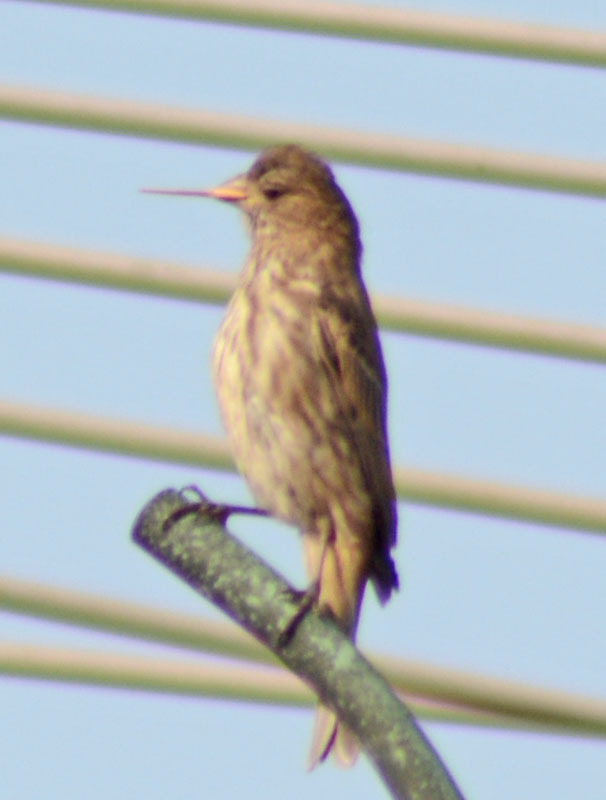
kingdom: Animalia
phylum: Chordata
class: Aves
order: Passeriformes
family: Fringillidae
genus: Haemorhous
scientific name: Haemorhous mexicanus
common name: House finch
